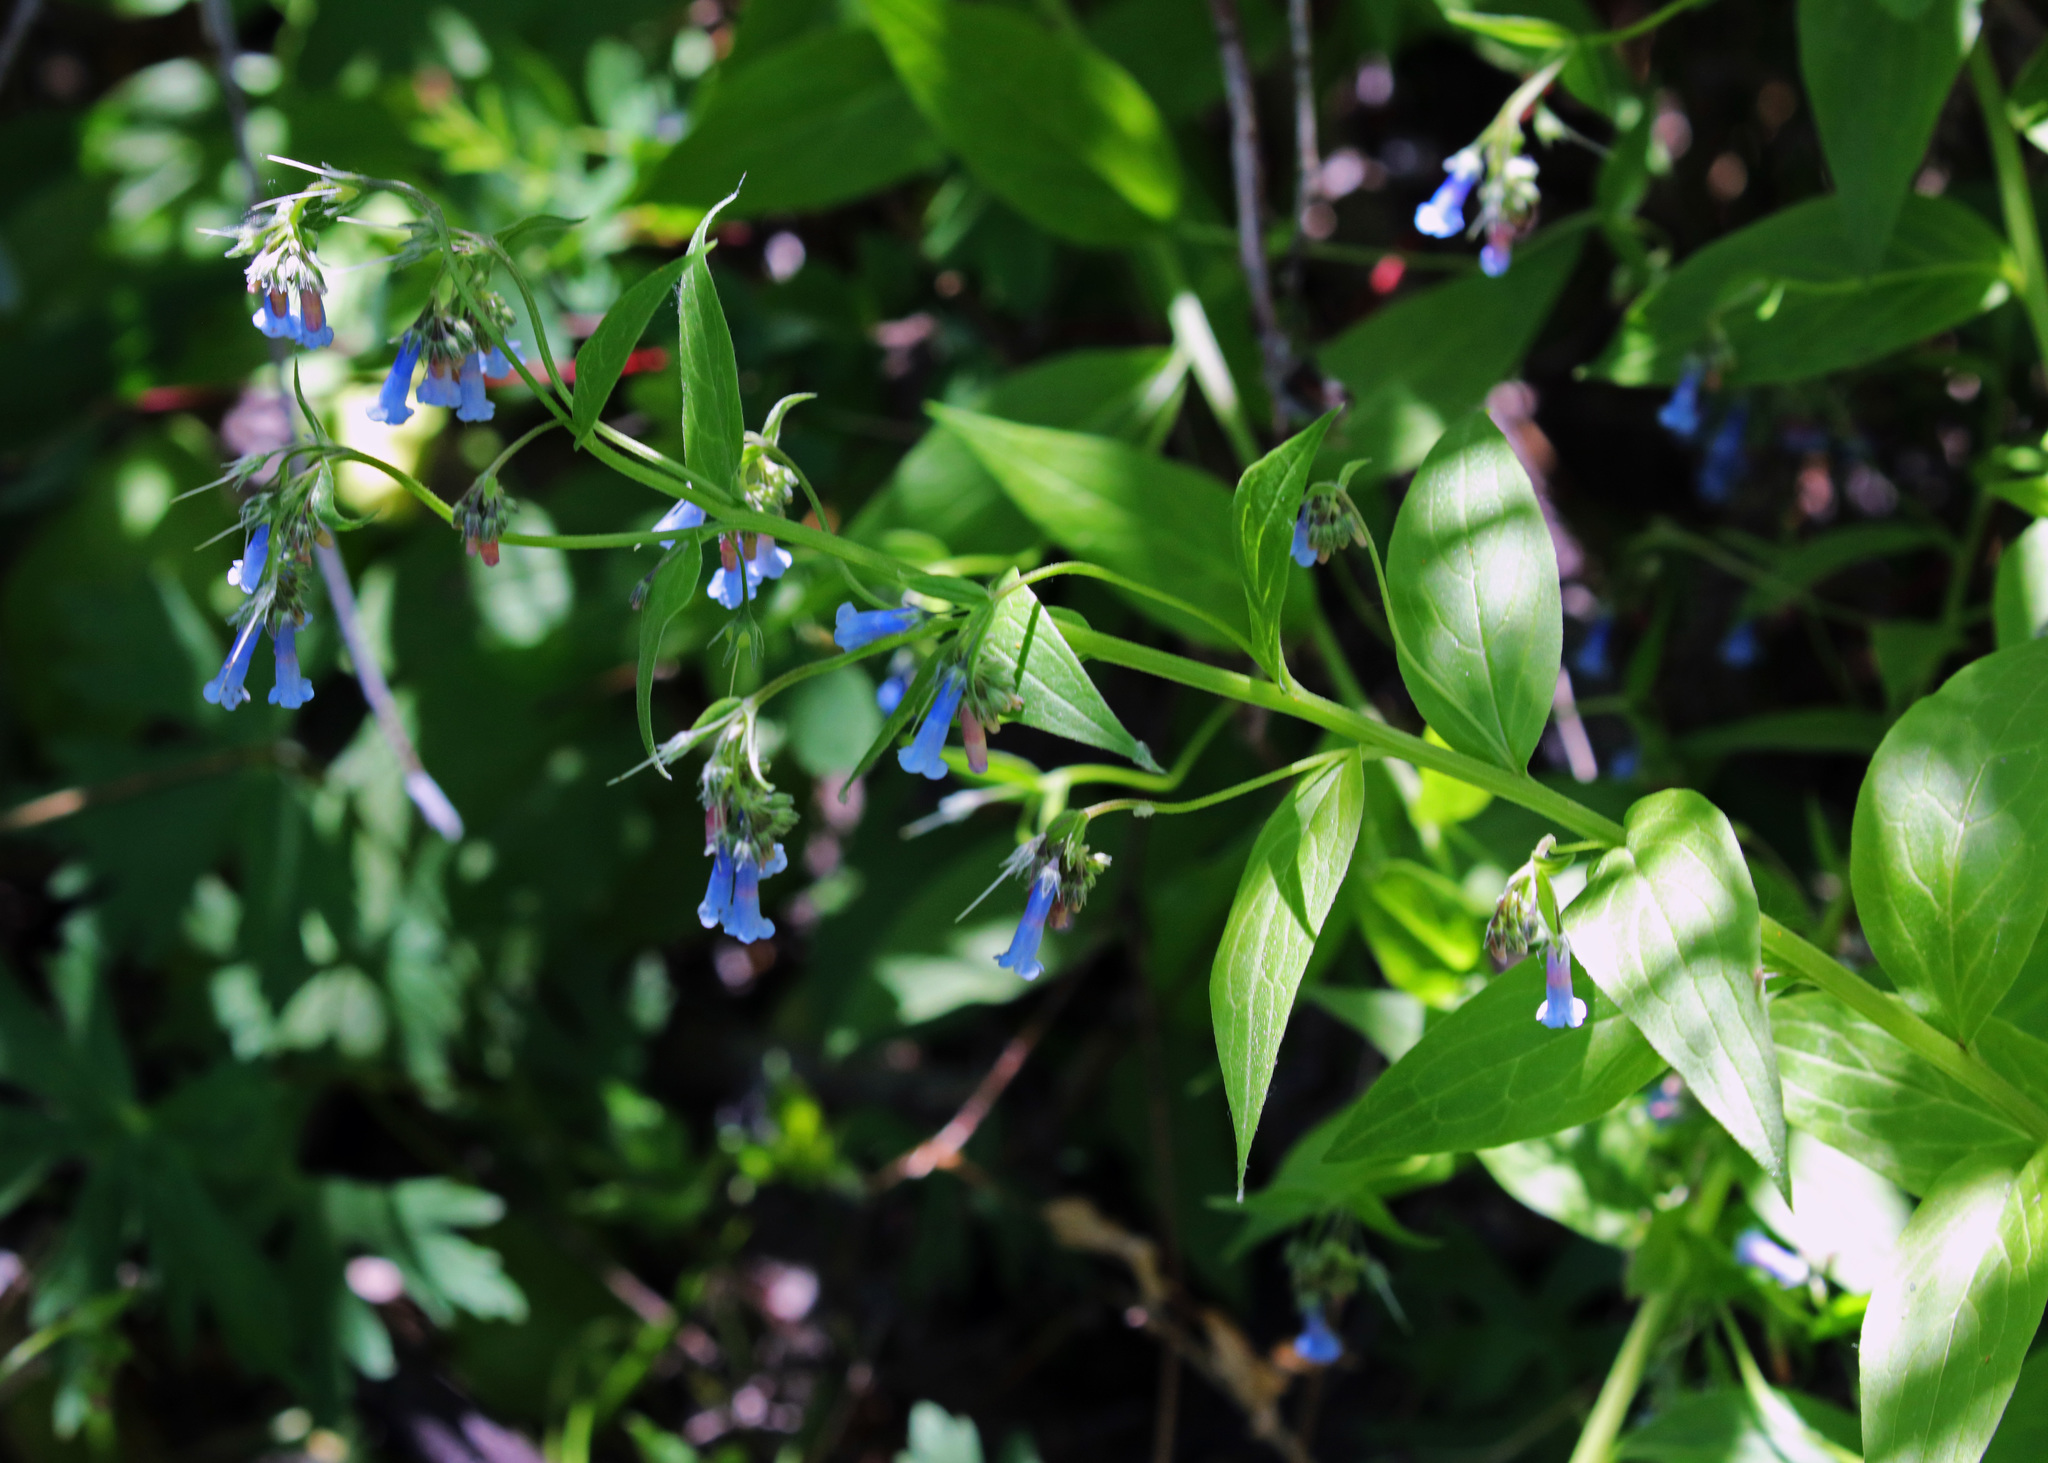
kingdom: Plantae
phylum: Tracheophyta
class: Magnoliopsida
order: Boraginales
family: Boraginaceae
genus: Mertensia
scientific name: Mertensia ciliata
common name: Tall chiming-bells
